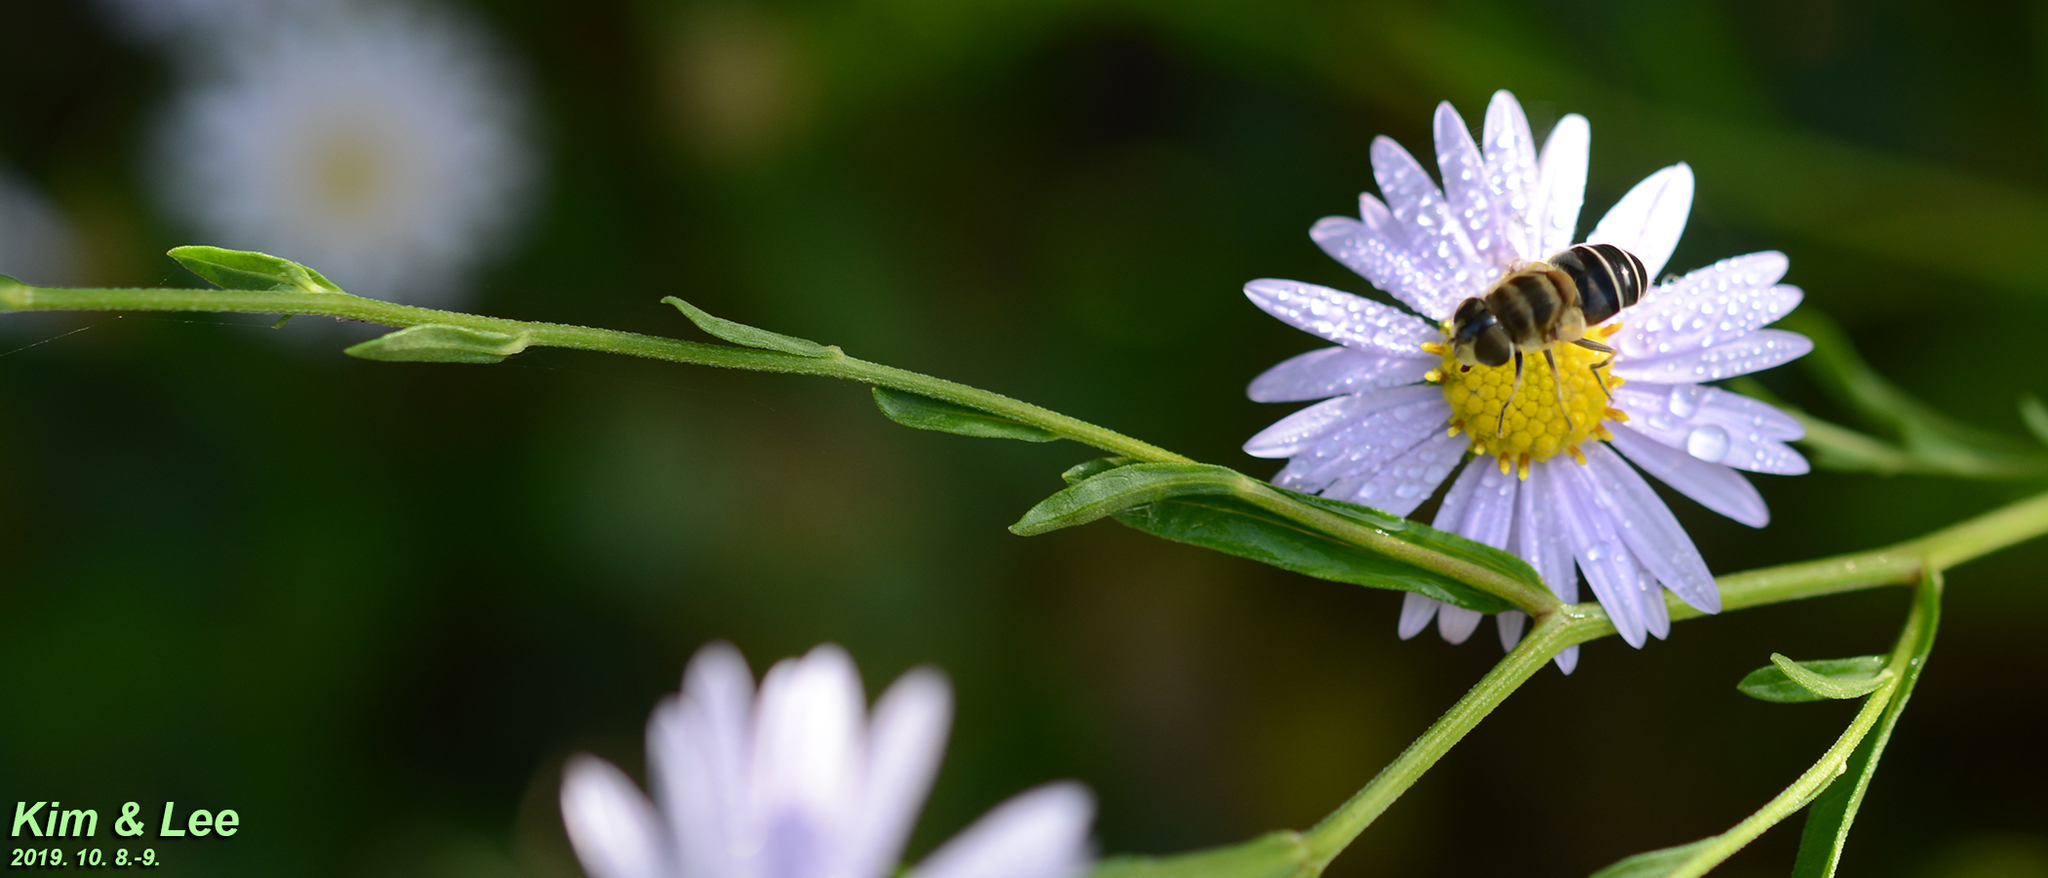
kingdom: Animalia
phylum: Arthropoda
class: Insecta
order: Diptera
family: Syrphidae
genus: Eristalis
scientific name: Eristalis kyokoae
